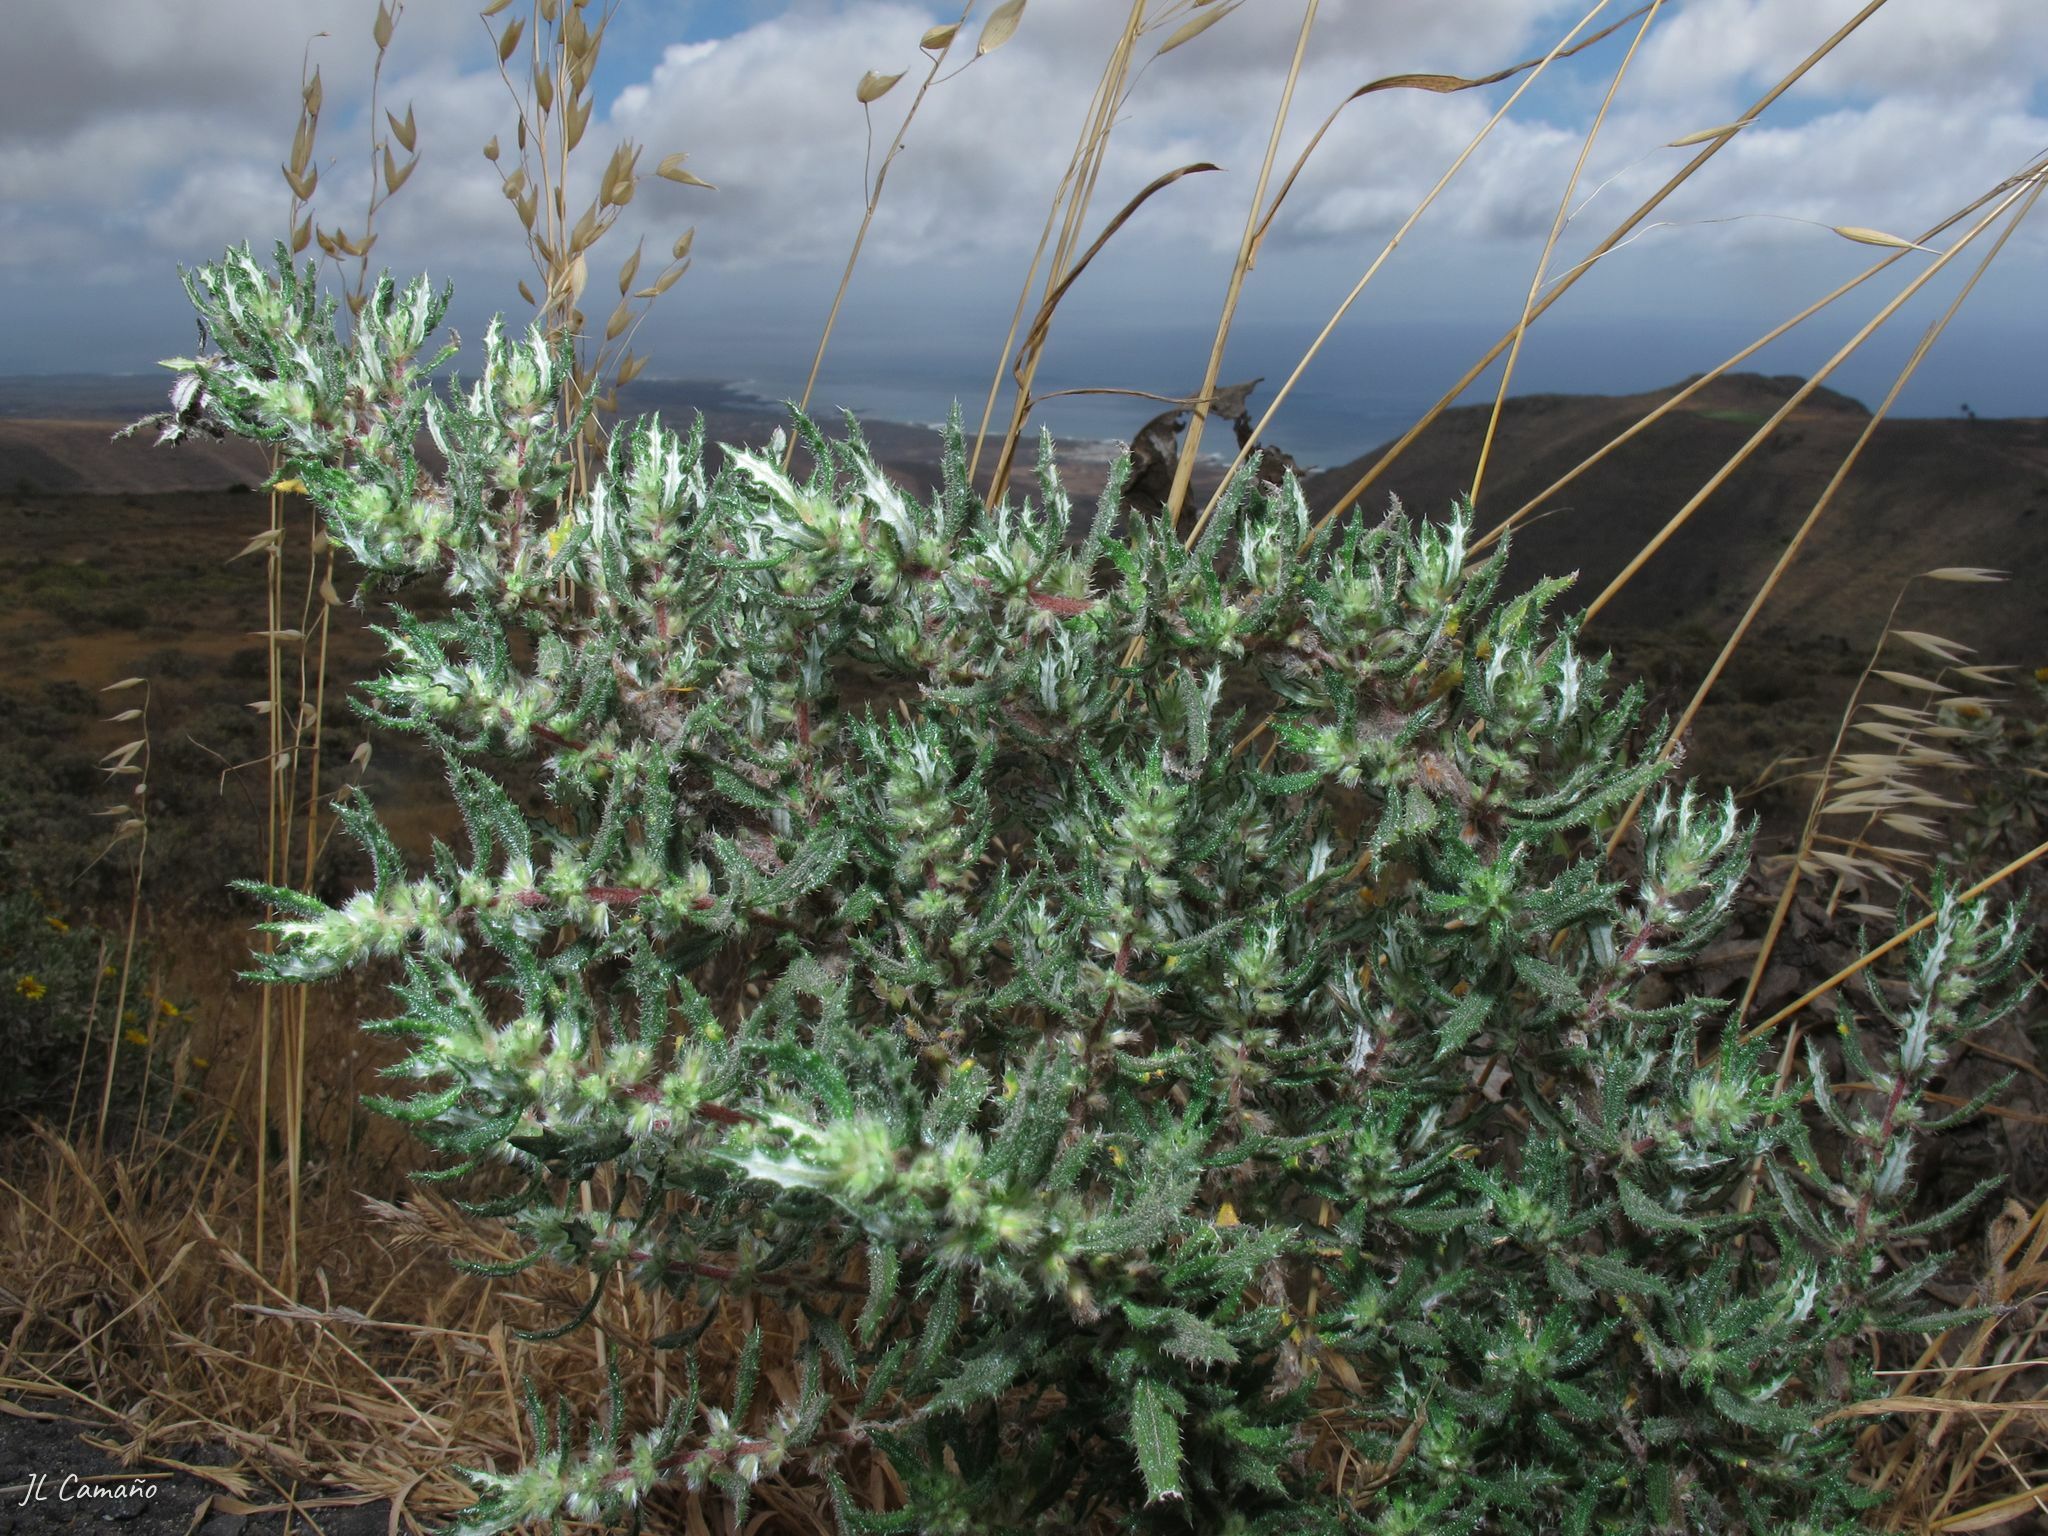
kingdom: Plantae
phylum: Tracheophyta
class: Magnoliopsida
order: Rosales
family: Urticaceae
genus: Forsskaolea
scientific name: Forsskaolea angustifolia
